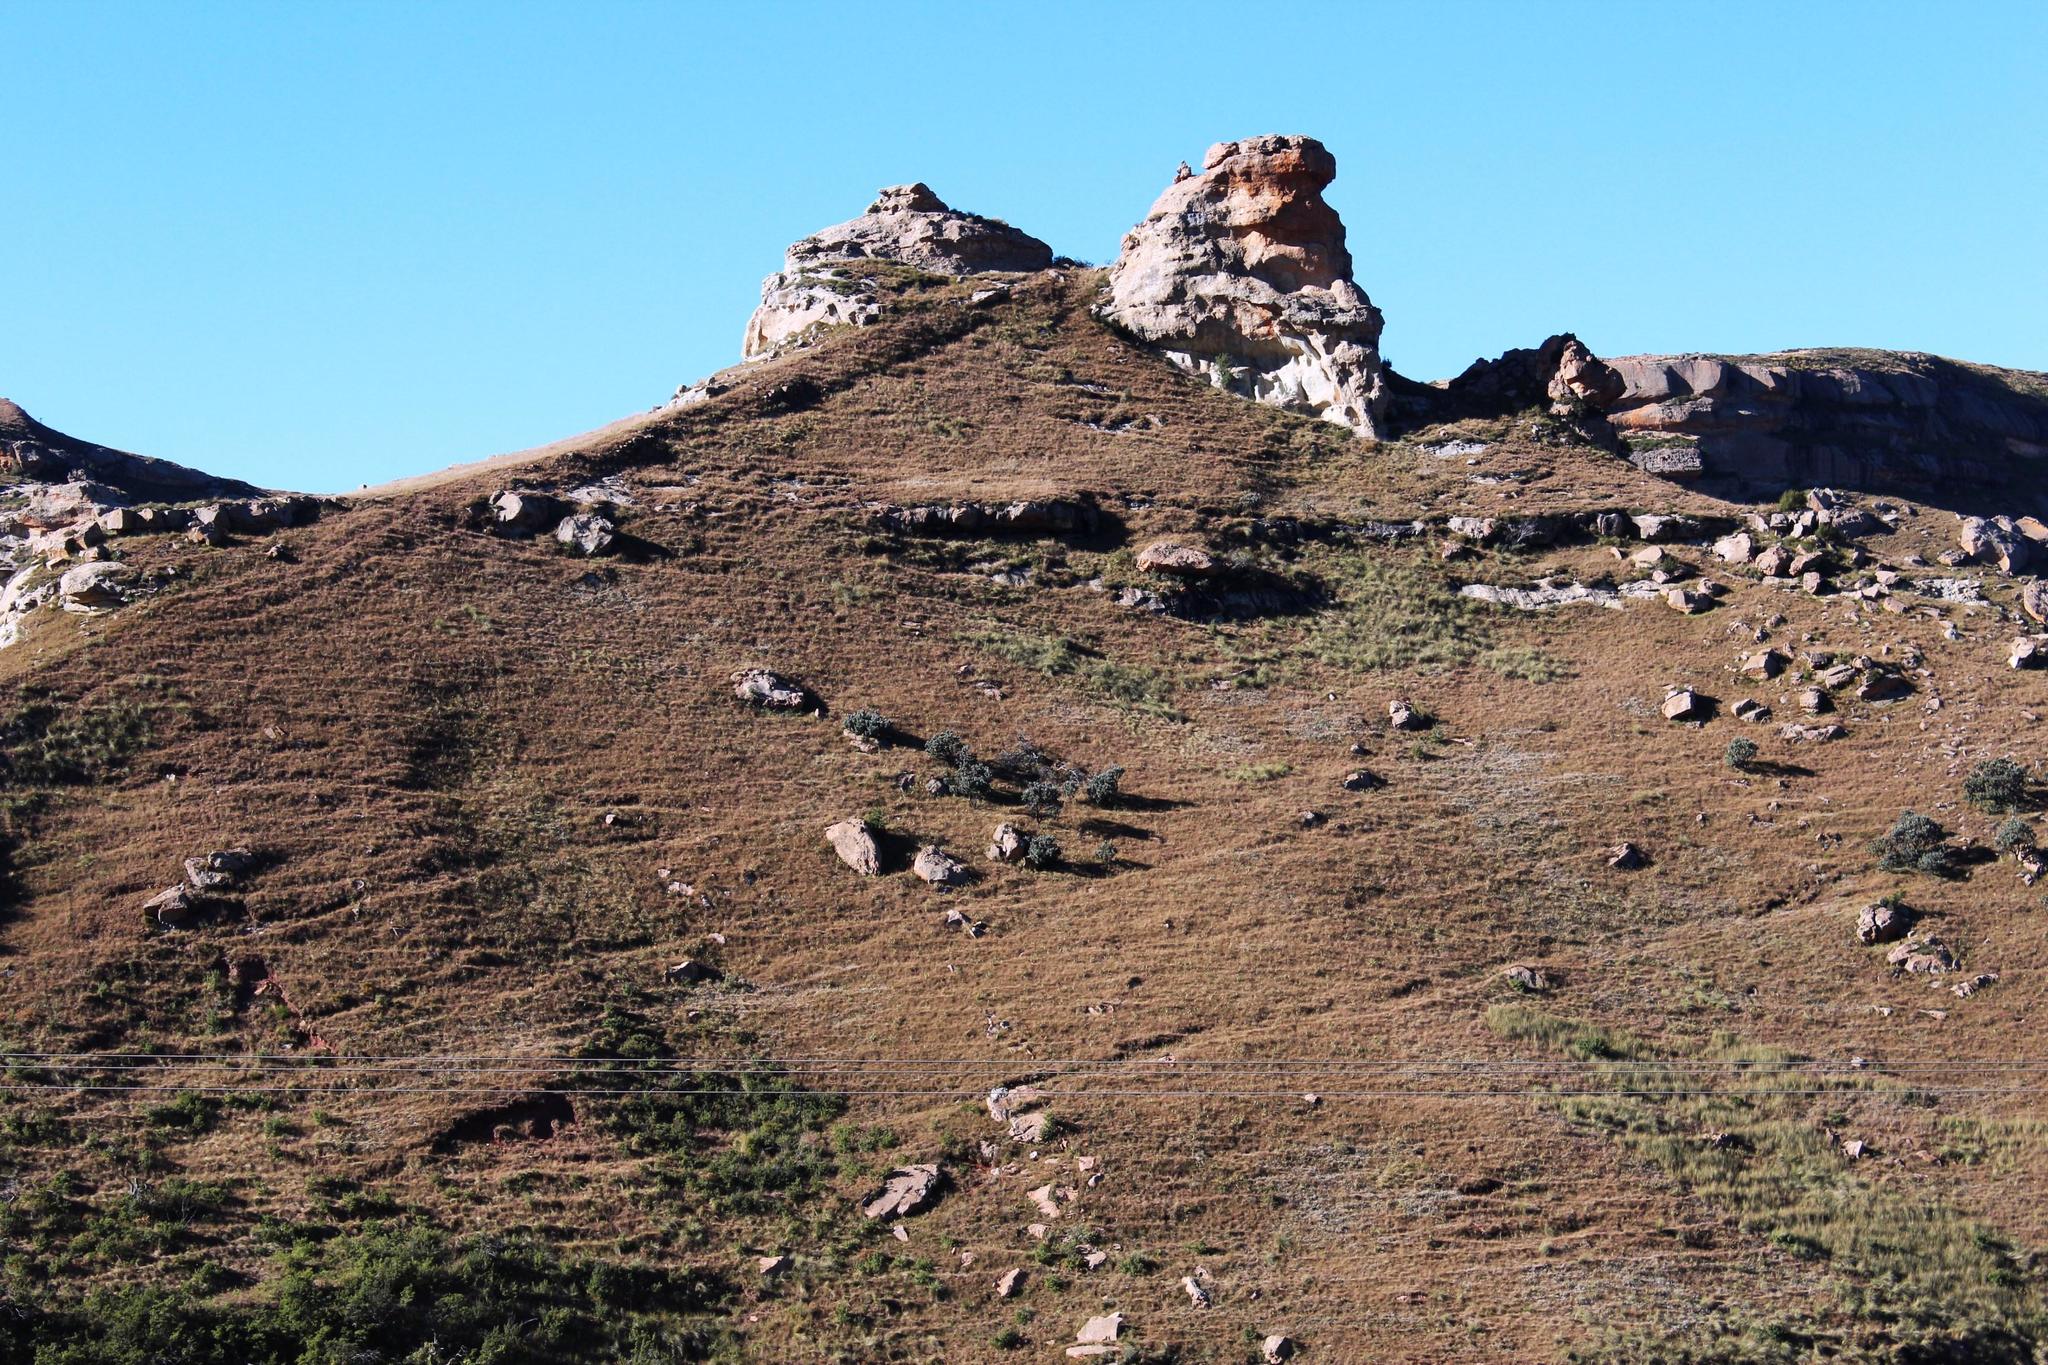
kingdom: Plantae
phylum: Tracheophyta
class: Magnoliopsida
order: Proteales
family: Proteaceae
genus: Protea
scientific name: Protea roupelliae
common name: Silver sugarbush
